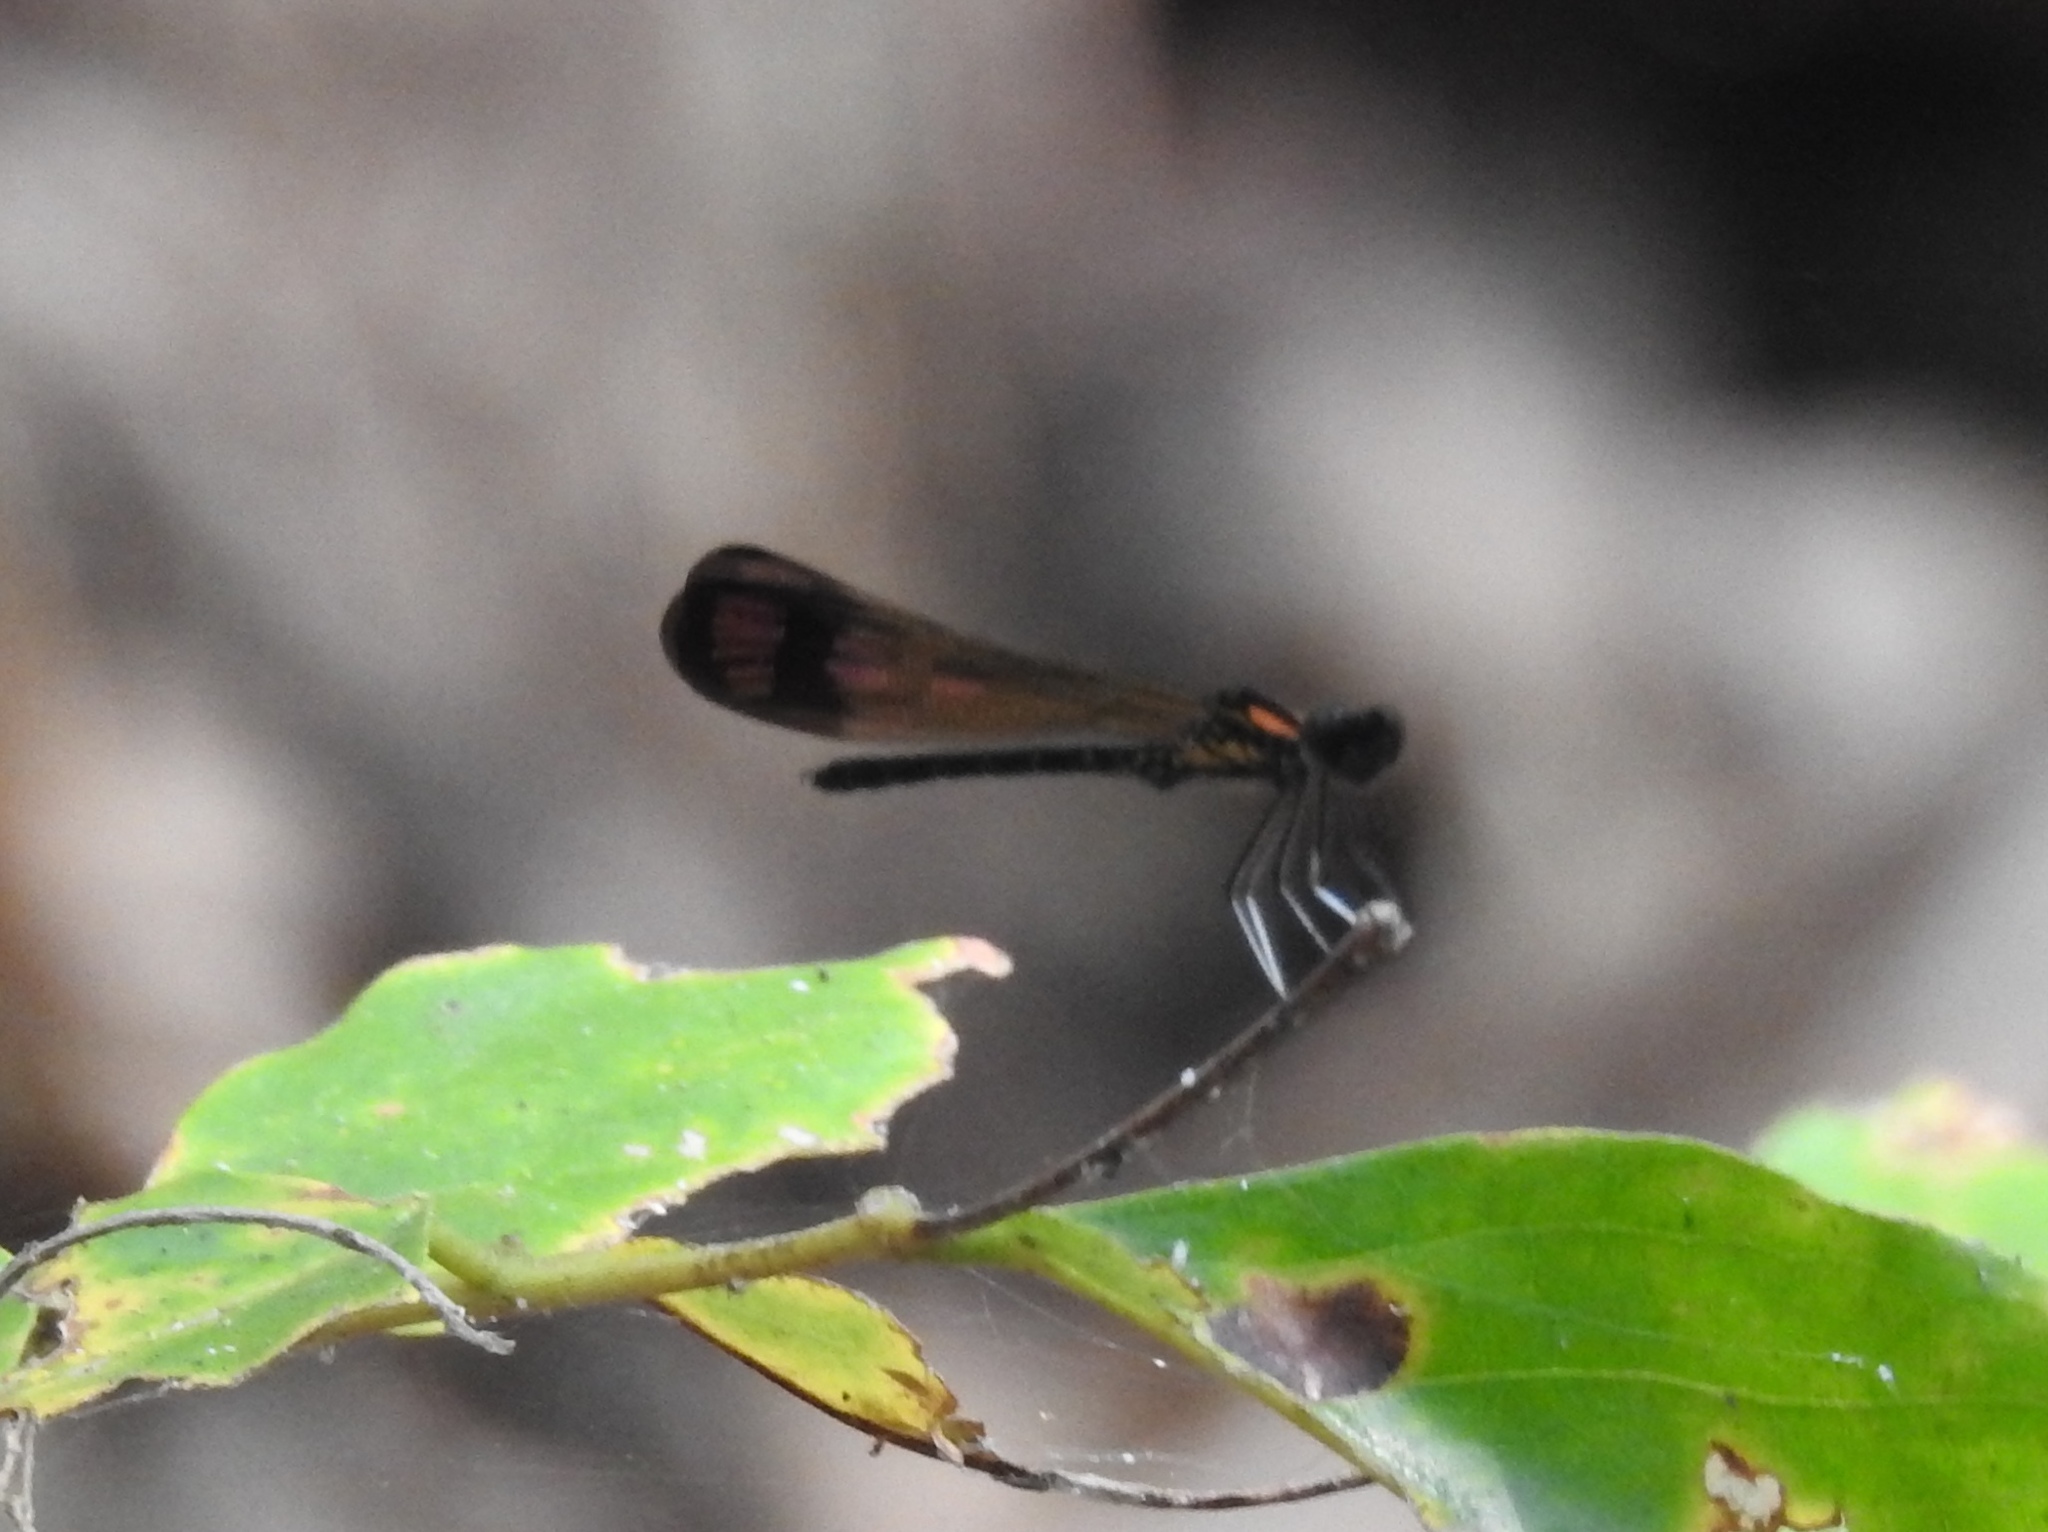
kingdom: Animalia
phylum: Arthropoda
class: Insecta
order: Odonata
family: Chlorocyphidae
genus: Heliocypha
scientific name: Heliocypha bisignata
